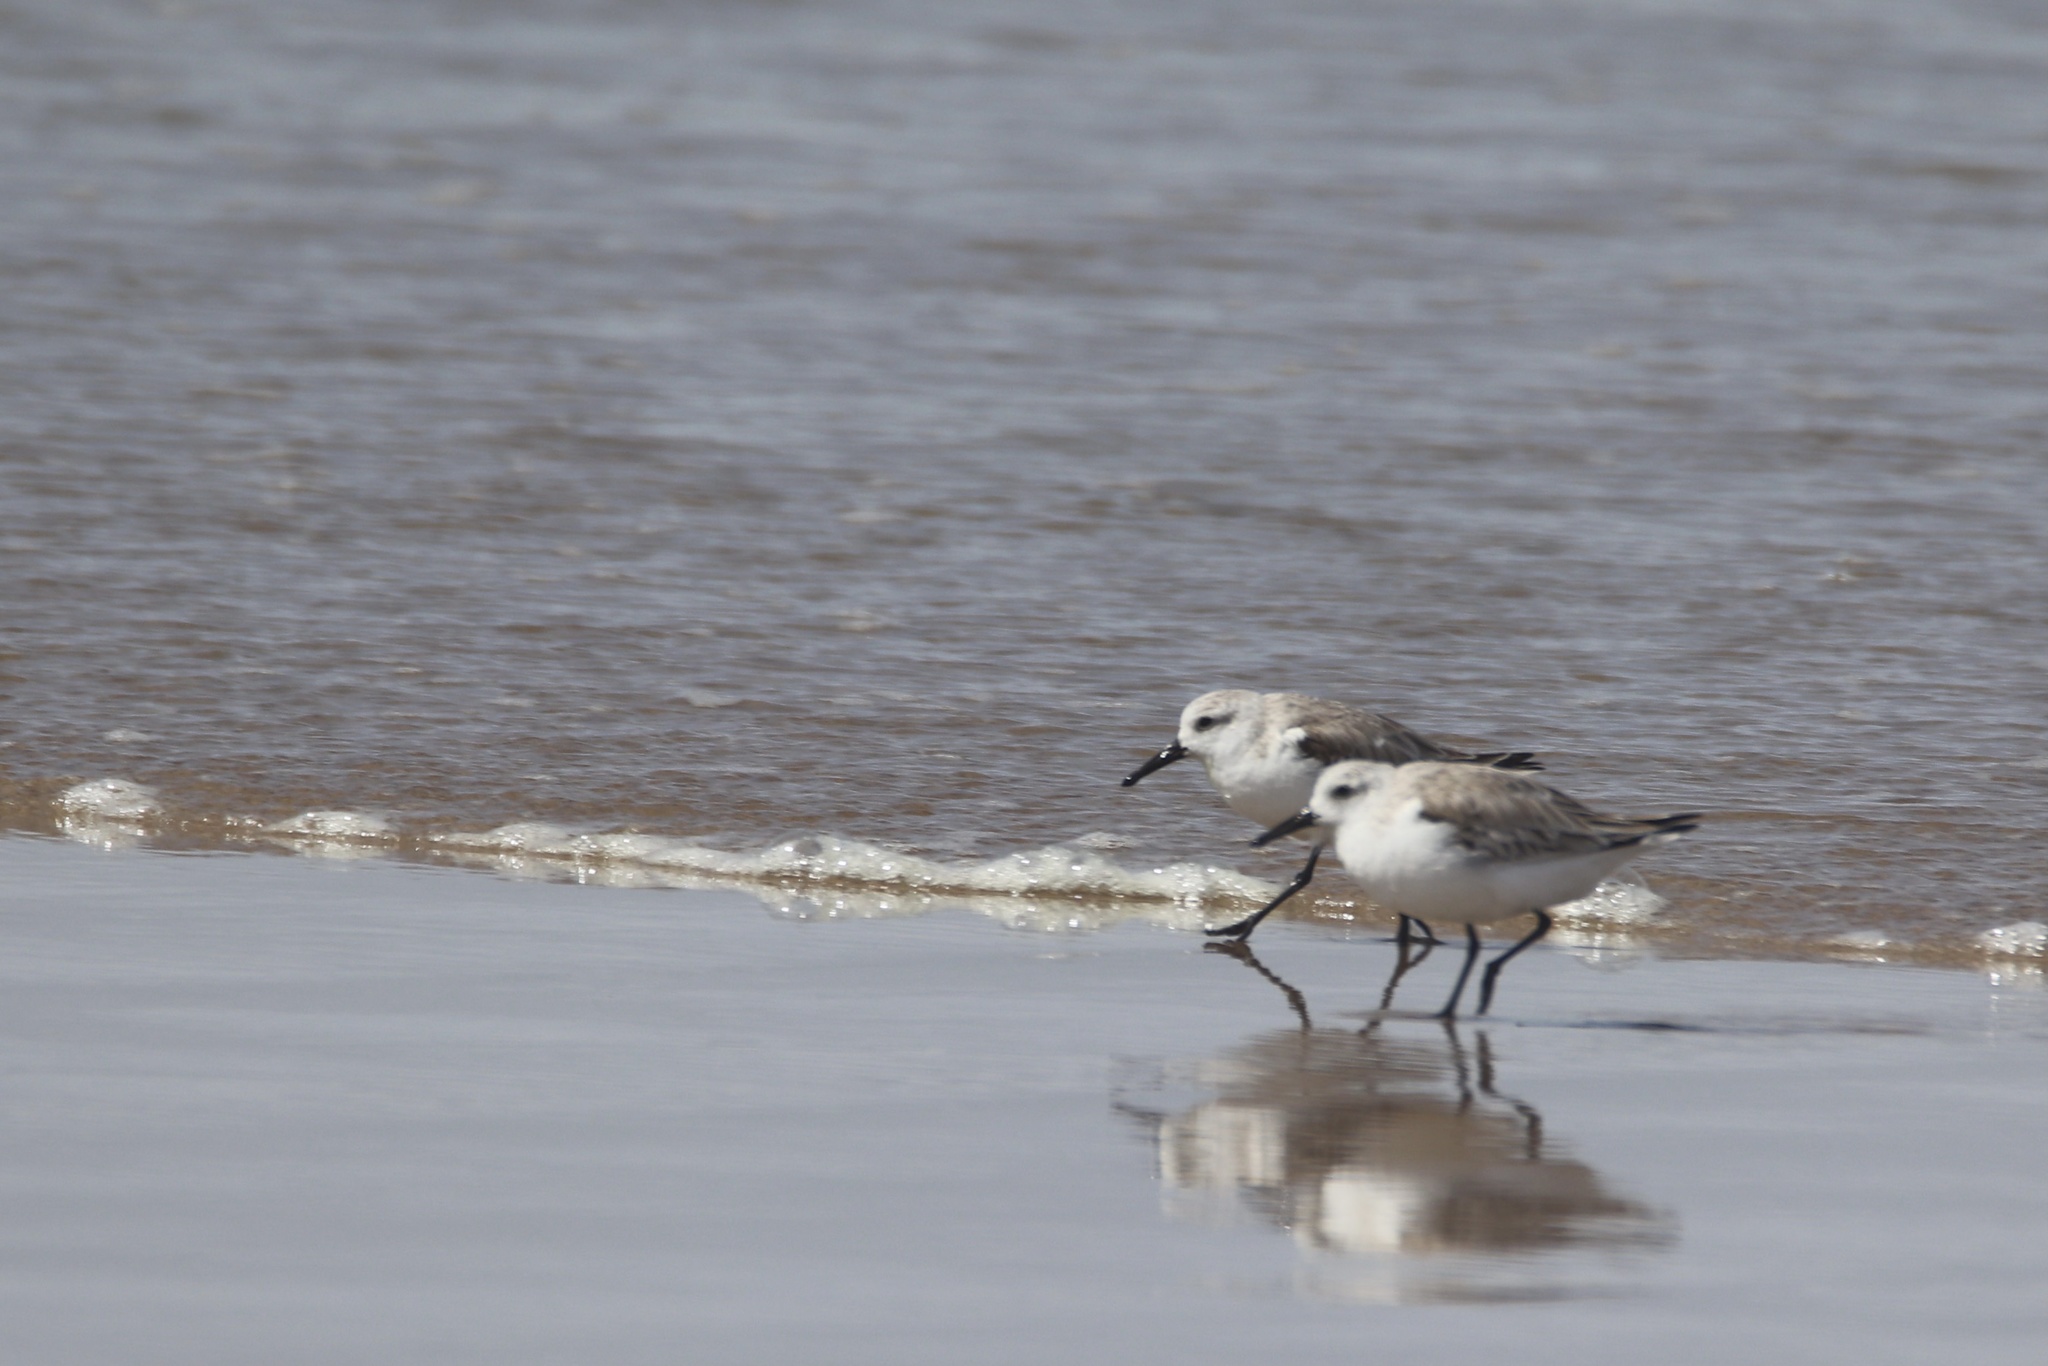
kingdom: Animalia
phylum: Chordata
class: Aves
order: Charadriiformes
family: Scolopacidae
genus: Calidris
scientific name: Calidris alba
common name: Sanderling
